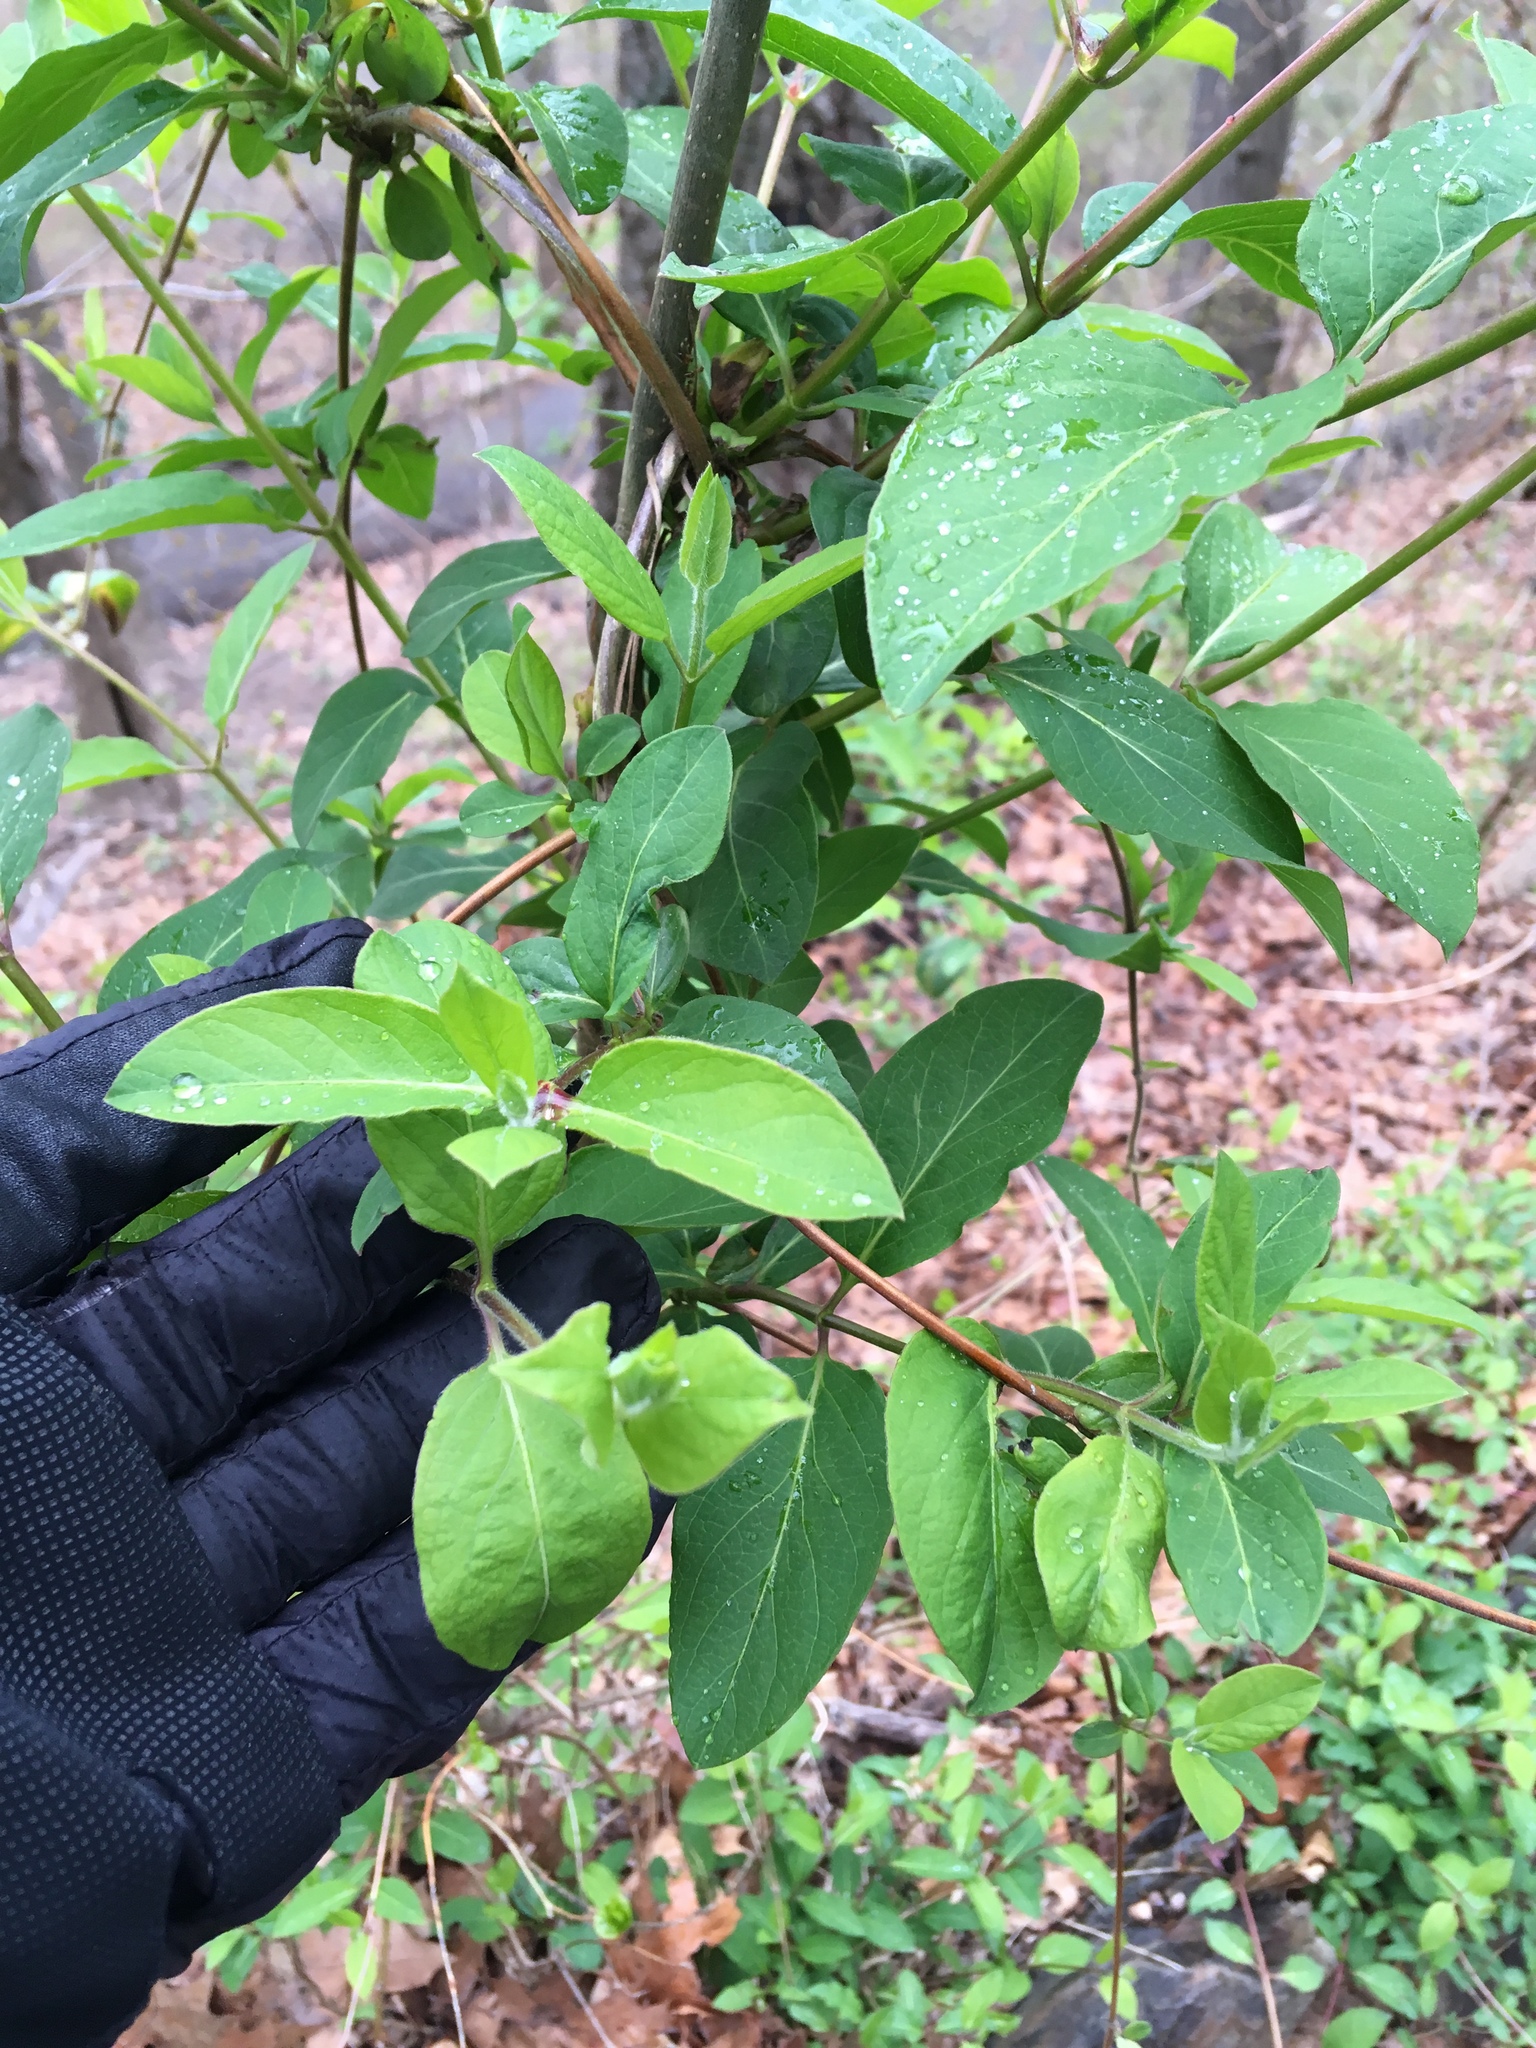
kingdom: Plantae
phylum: Tracheophyta
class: Magnoliopsida
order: Dipsacales
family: Caprifoliaceae
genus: Lonicera
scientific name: Lonicera japonica
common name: Japanese honeysuckle
